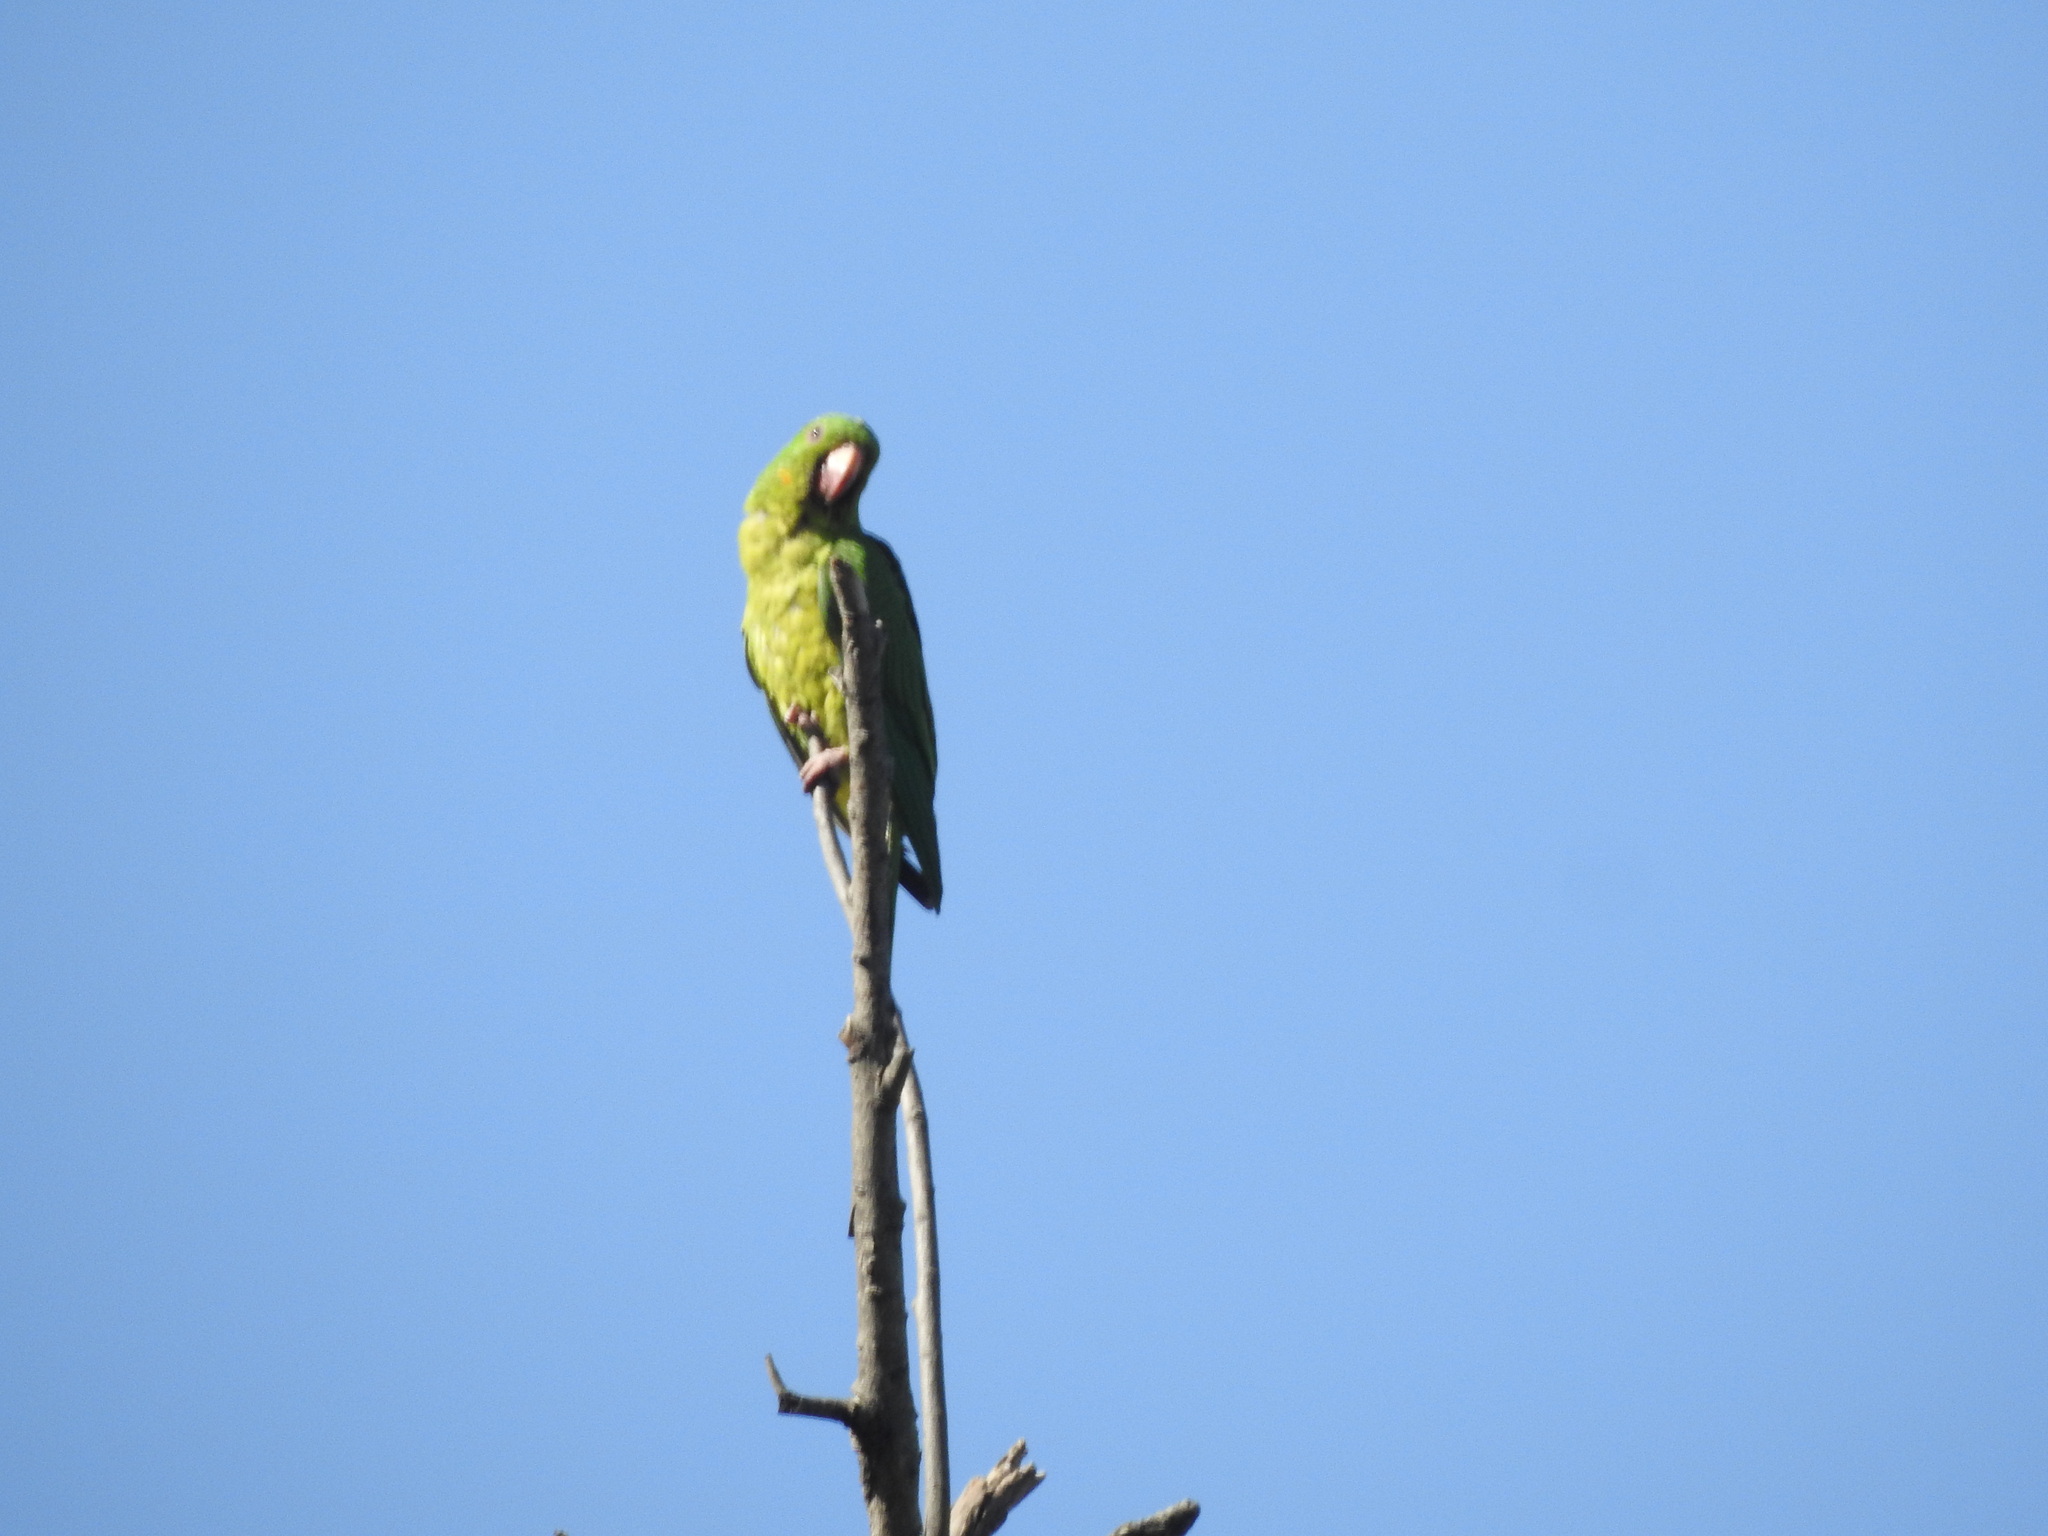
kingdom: Animalia
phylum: Chordata
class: Aves
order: Psittaciformes
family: Psittacidae
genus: Aratinga
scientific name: Aratinga holochlora
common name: Green parakeet
